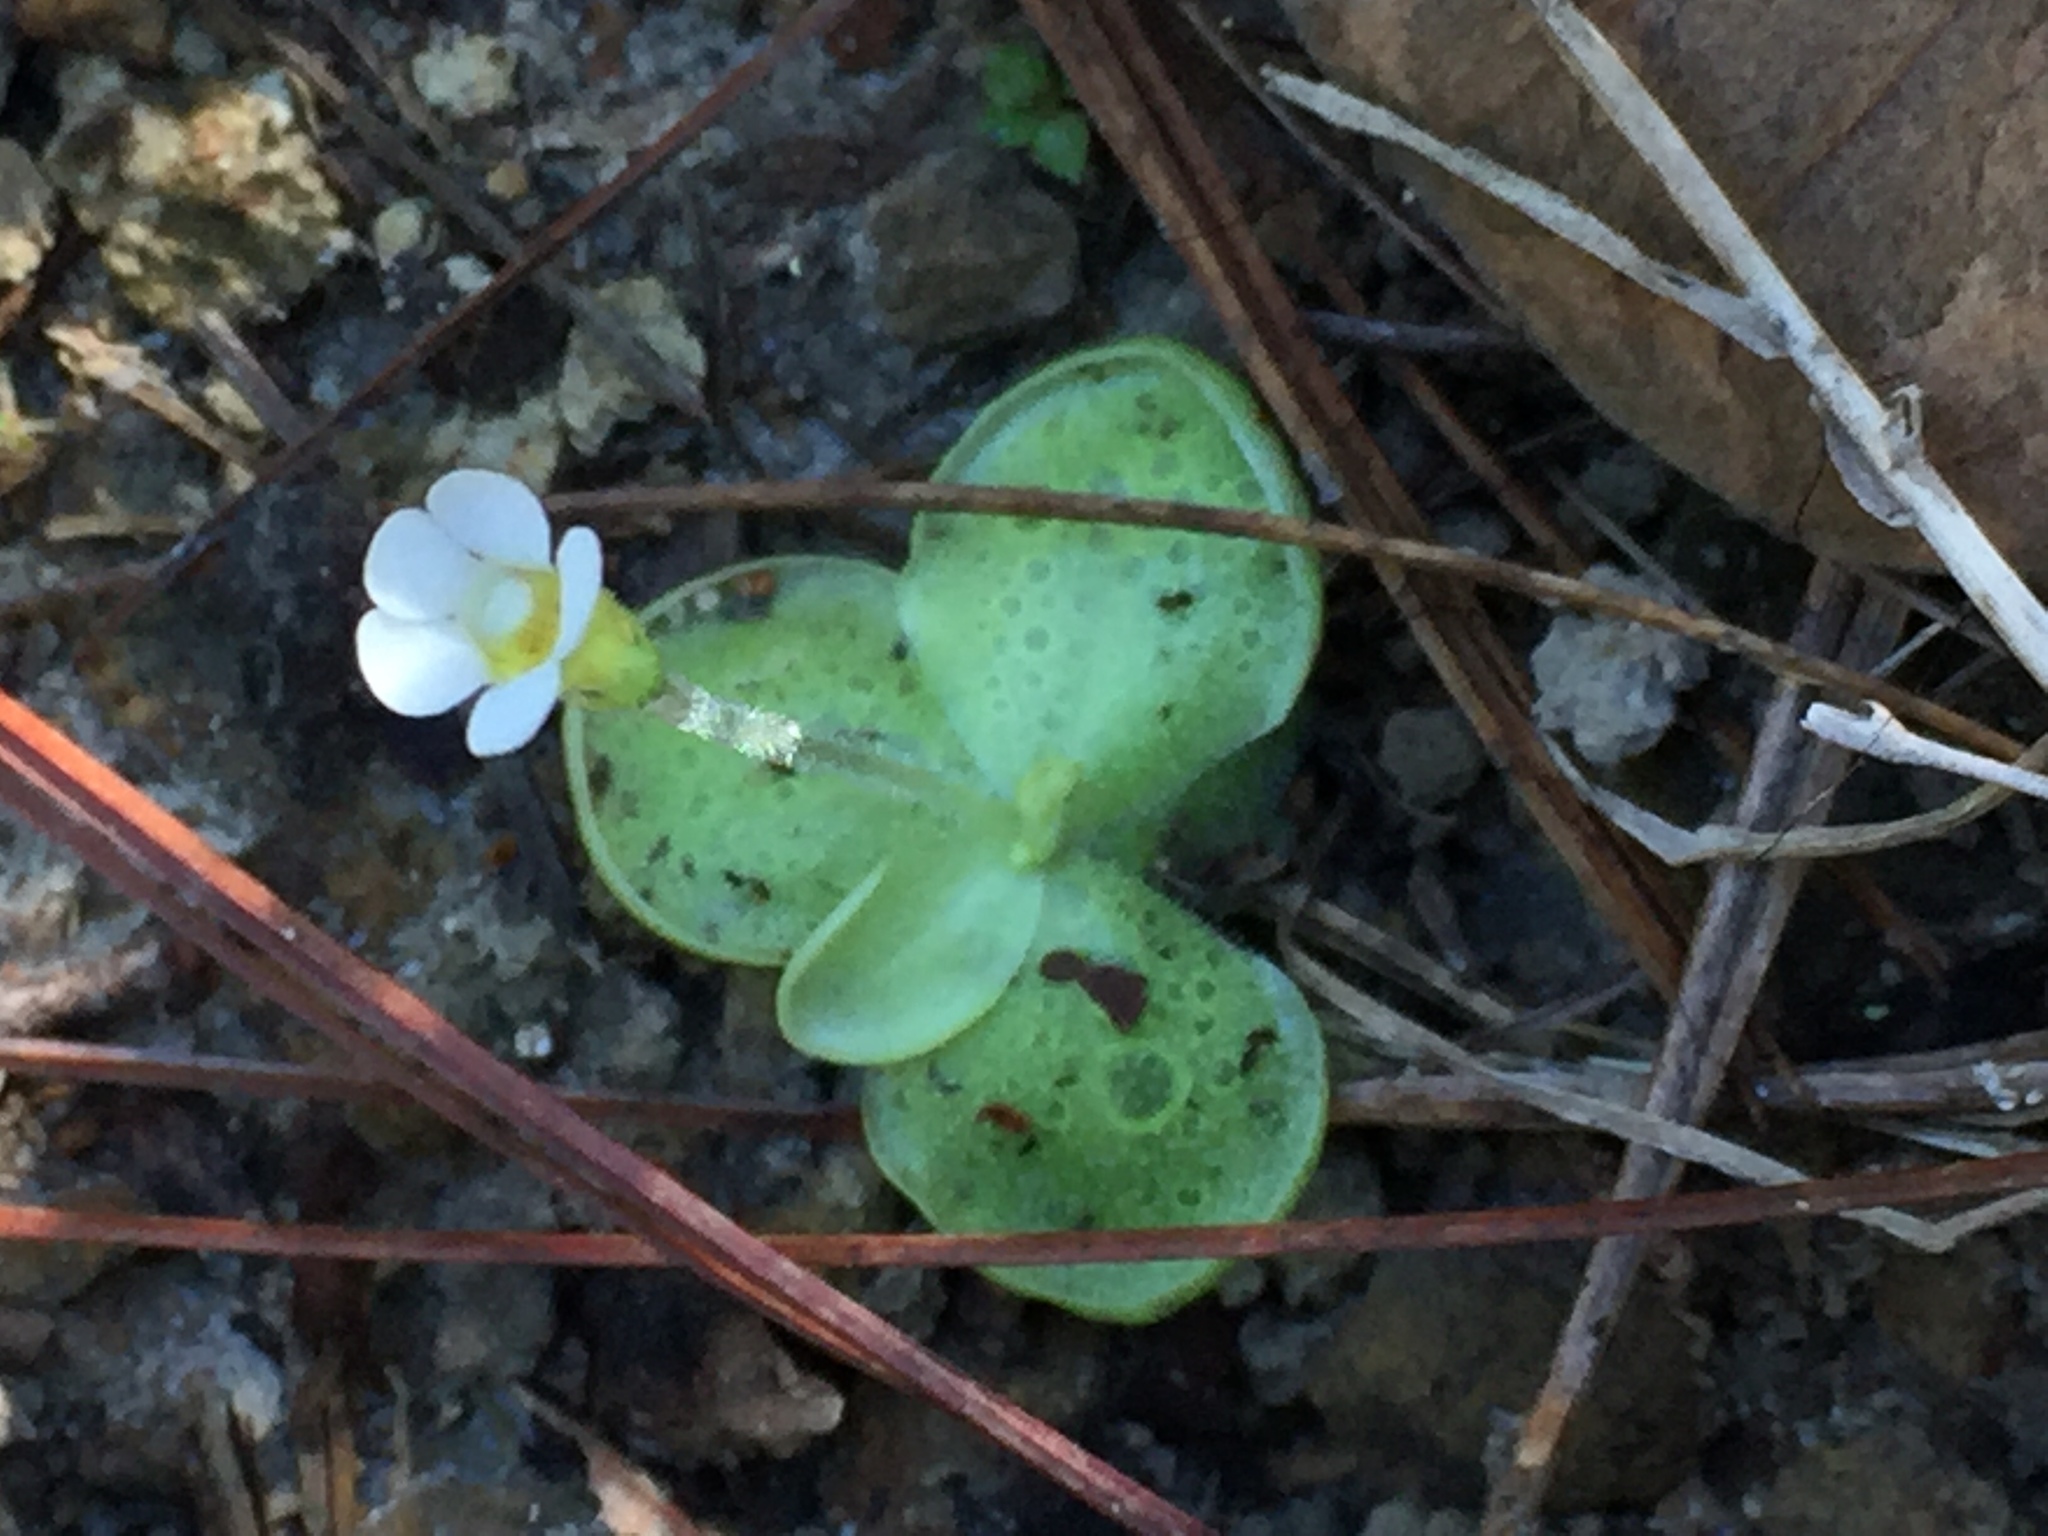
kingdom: Plantae
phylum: Tracheophyta
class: Magnoliopsida
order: Lamiales
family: Lentibulariaceae
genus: Pinguicula
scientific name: Pinguicula lilacina
